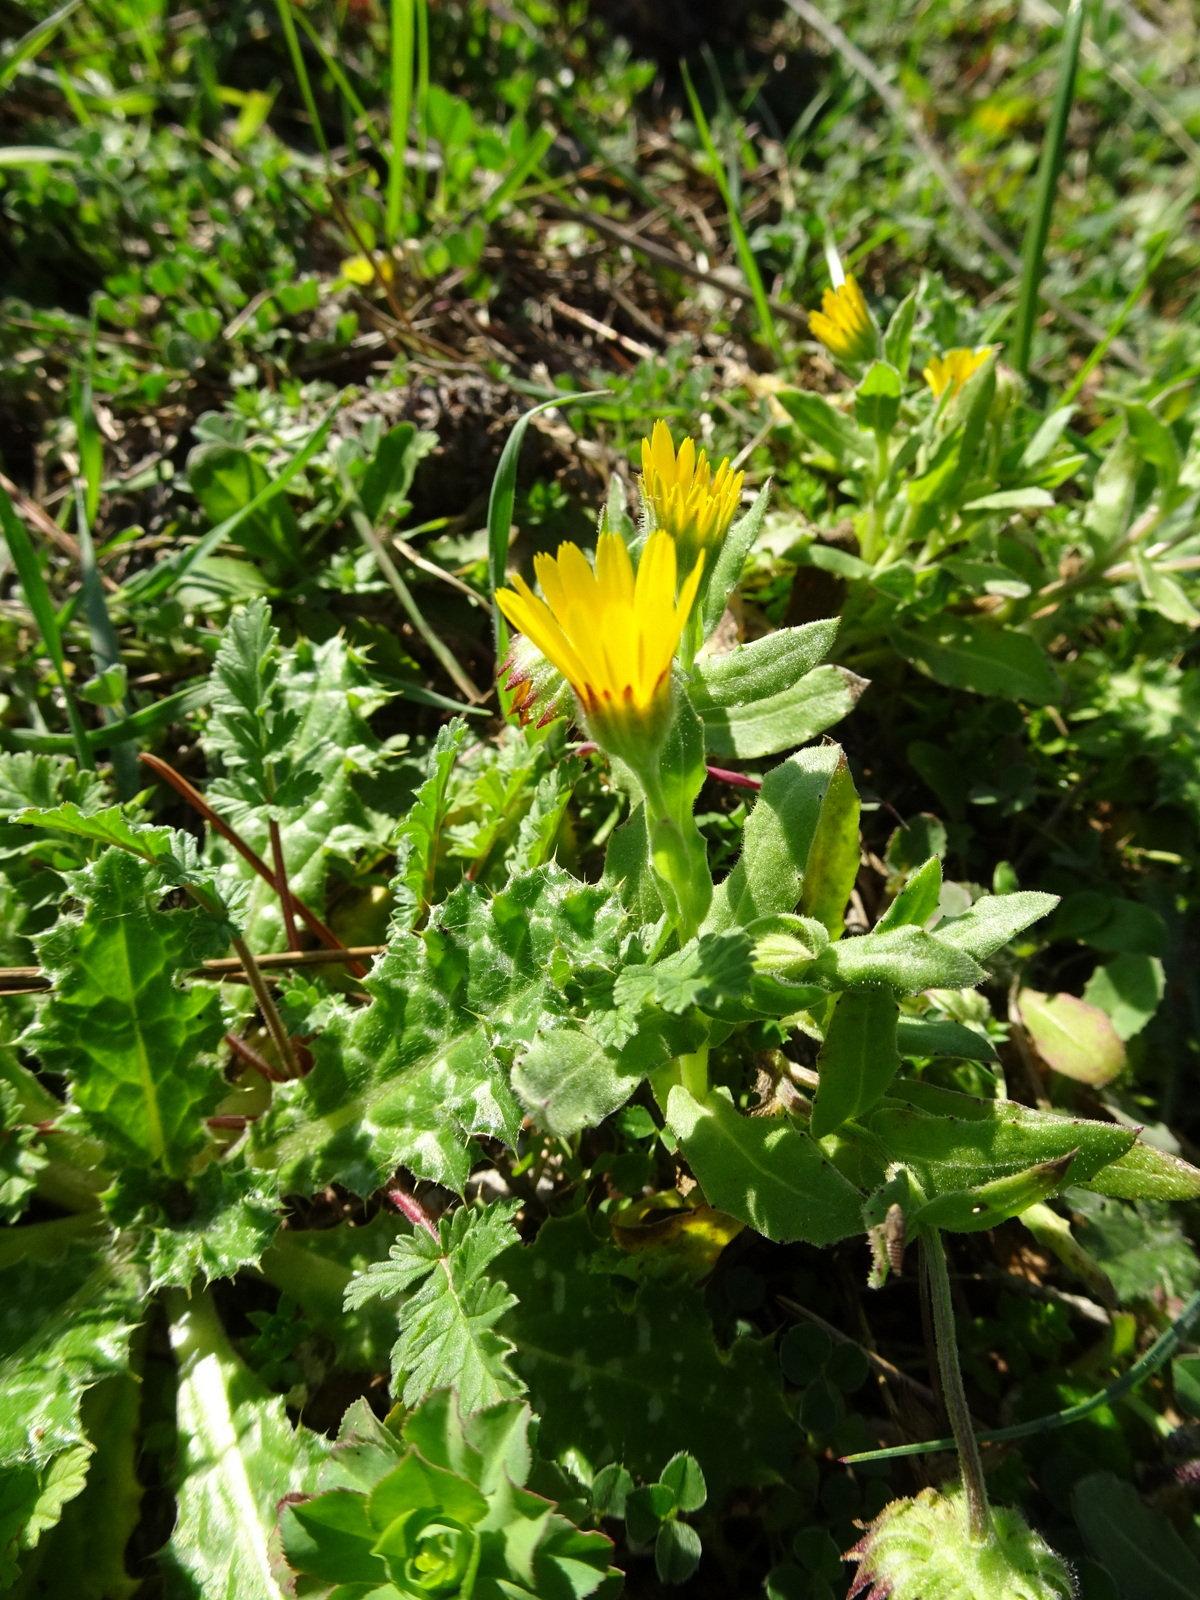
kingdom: Plantae
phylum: Tracheophyta
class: Magnoliopsida
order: Asterales
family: Asteraceae
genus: Calendula
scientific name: Calendula arvensis
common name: Field marigold
